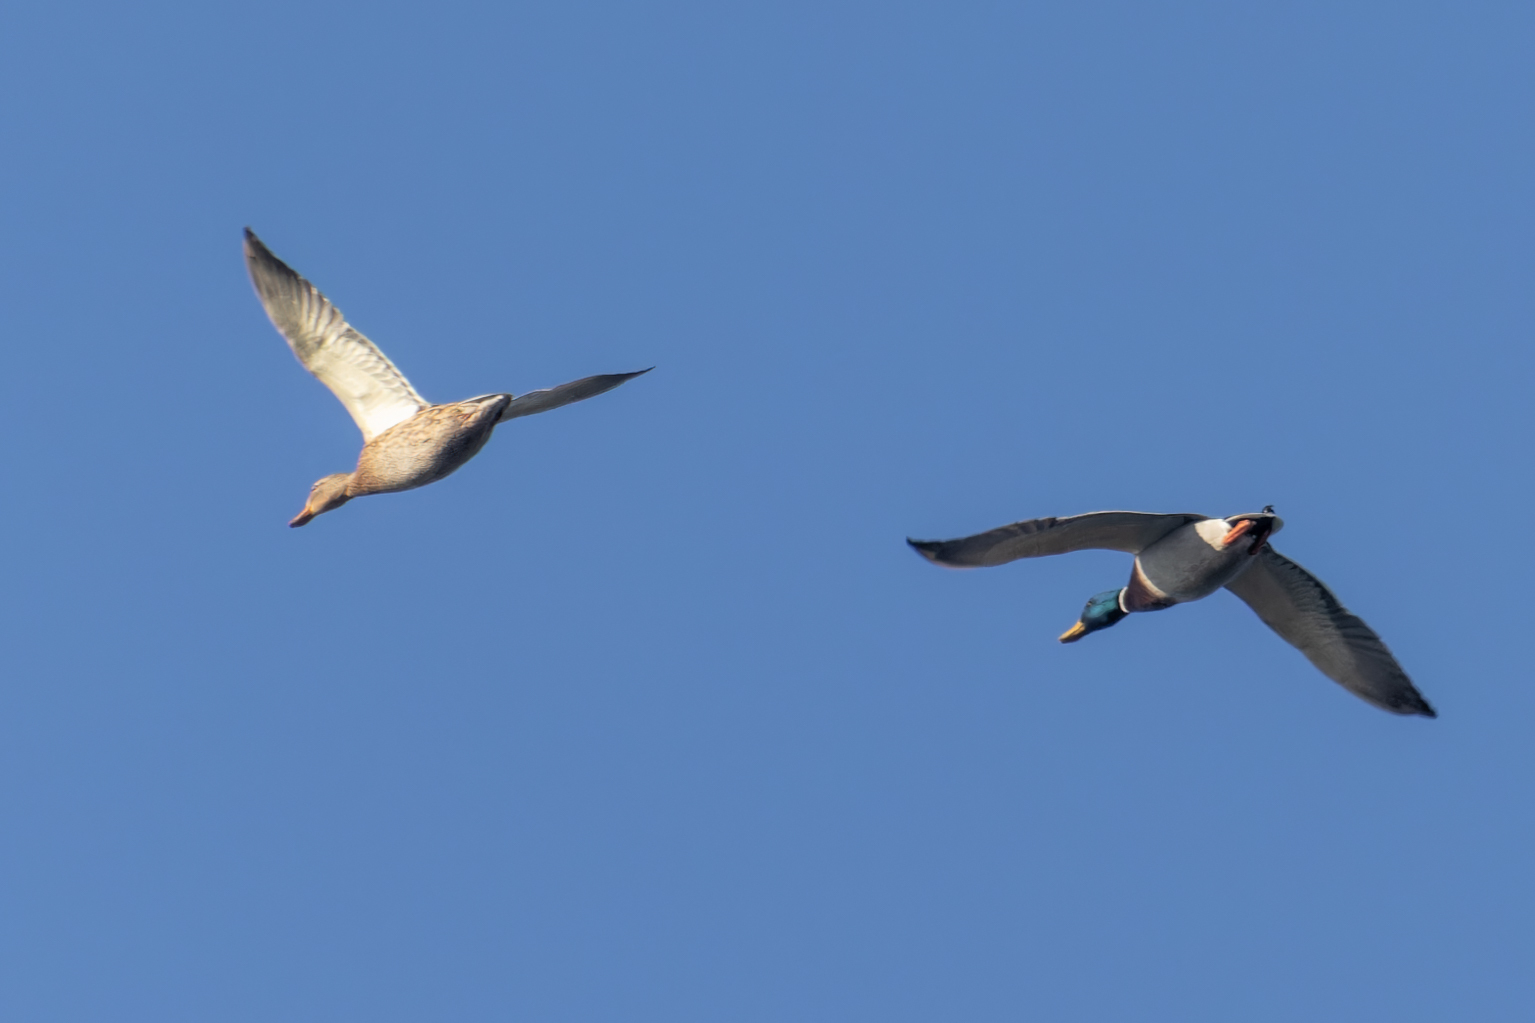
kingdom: Animalia
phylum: Chordata
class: Aves
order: Anseriformes
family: Anatidae
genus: Anas
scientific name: Anas platyrhynchos
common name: Mallard
